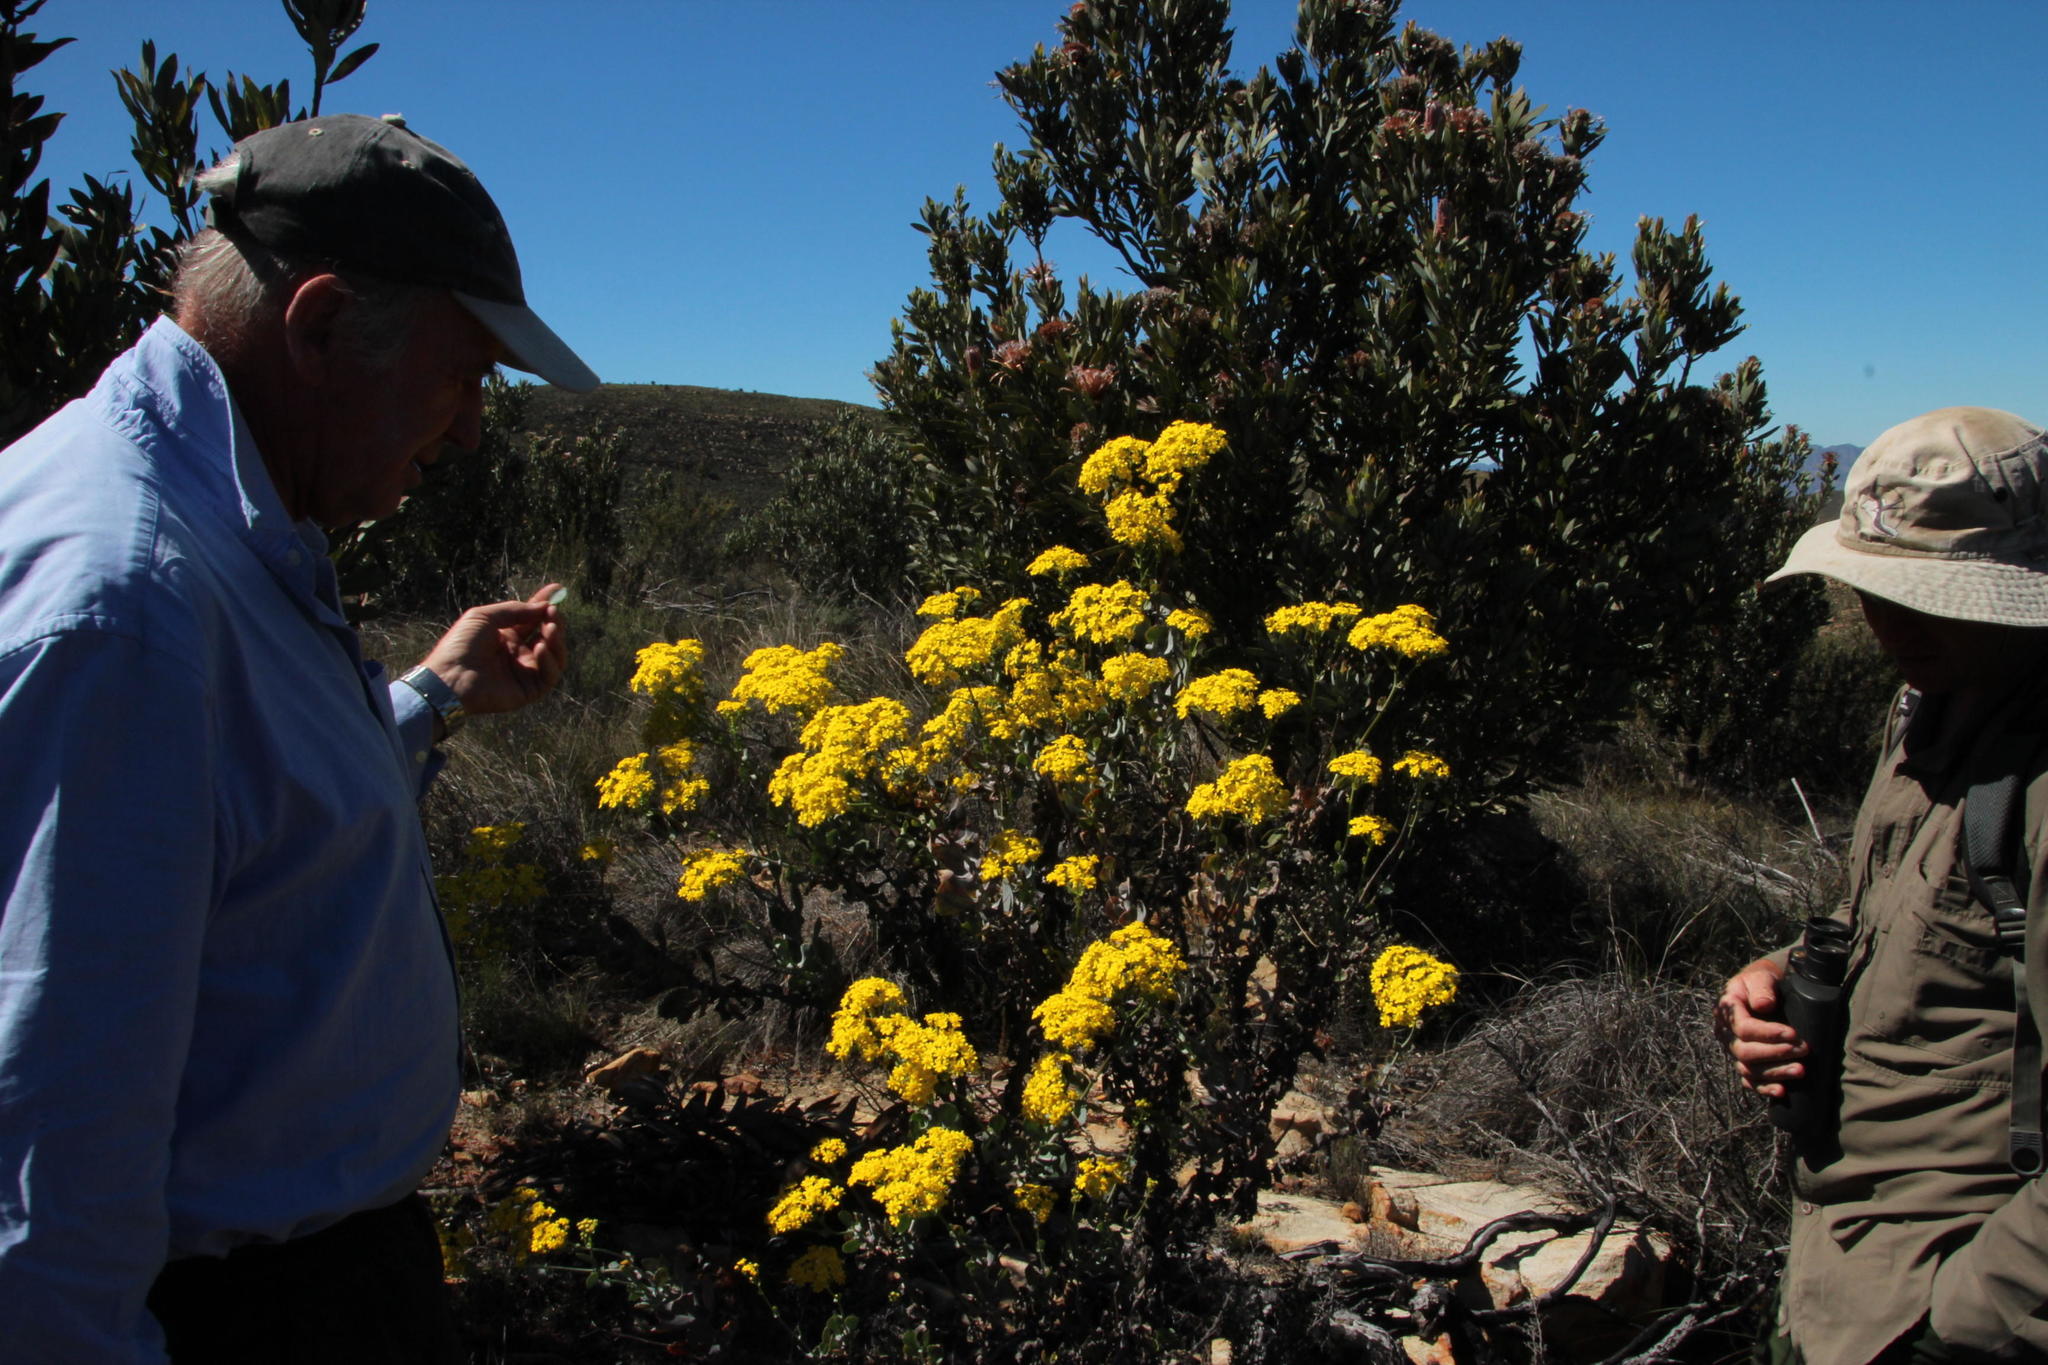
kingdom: Plantae
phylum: Tracheophyta
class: Magnoliopsida
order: Asterales
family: Asteraceae
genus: Othonna
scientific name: Othonna parviflora
